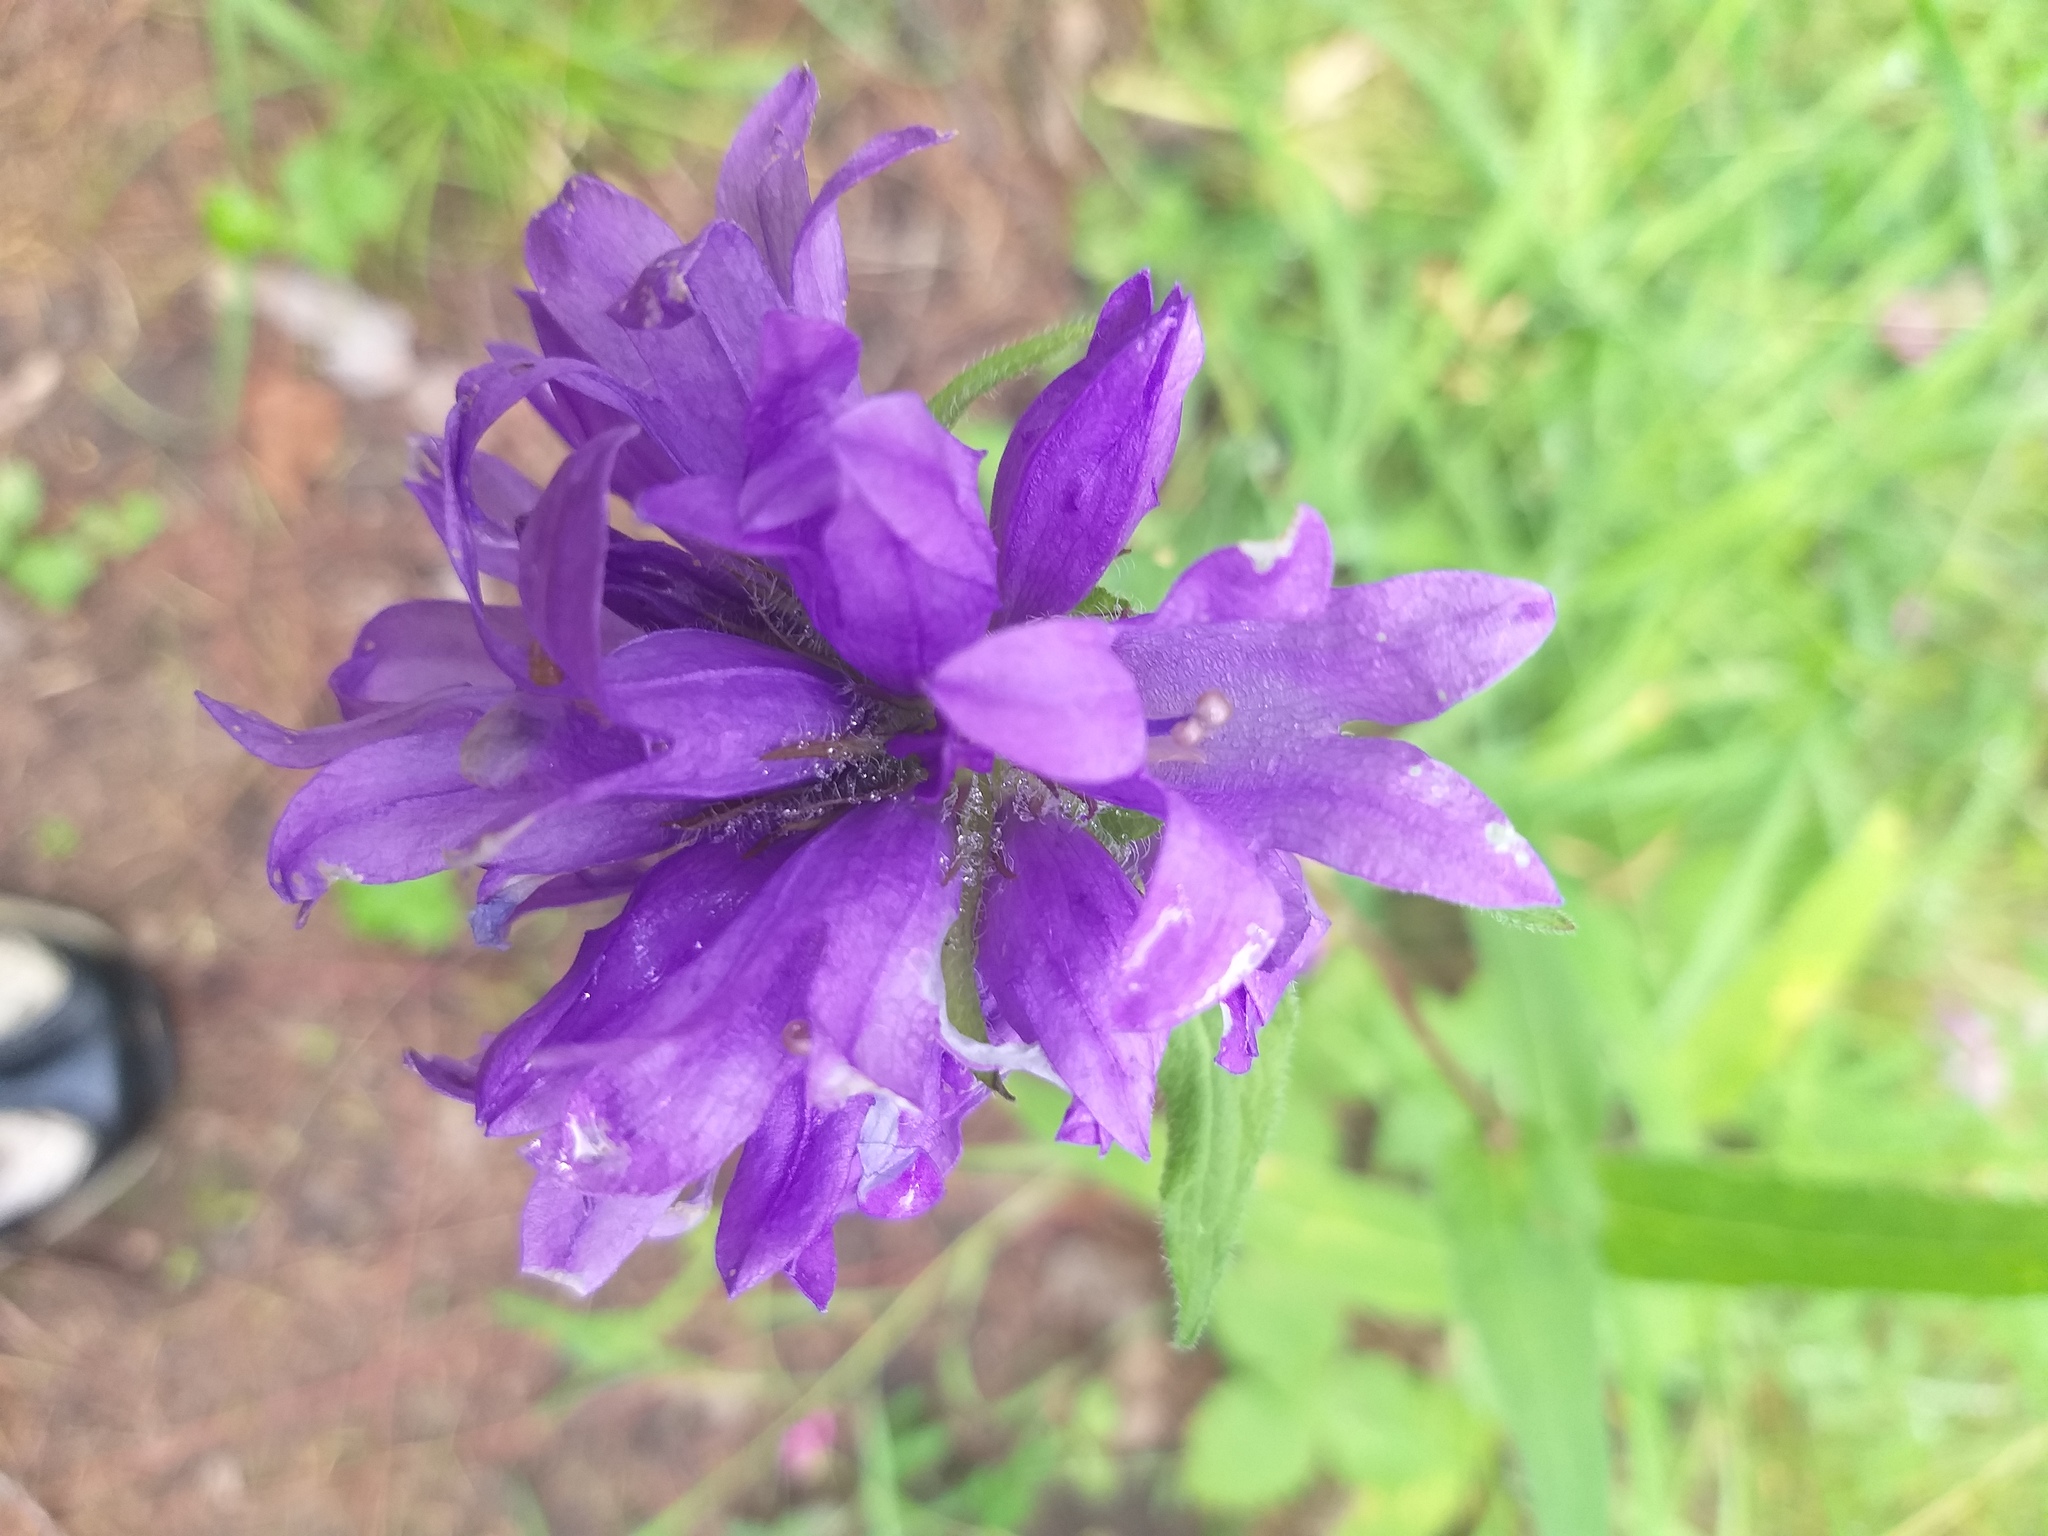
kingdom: Plantae
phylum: Tracheophyta
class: Magnoliopsida
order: Asterales
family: Campanulaceae
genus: Campanula
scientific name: Campanula glomerata
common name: Clustered bellflower
